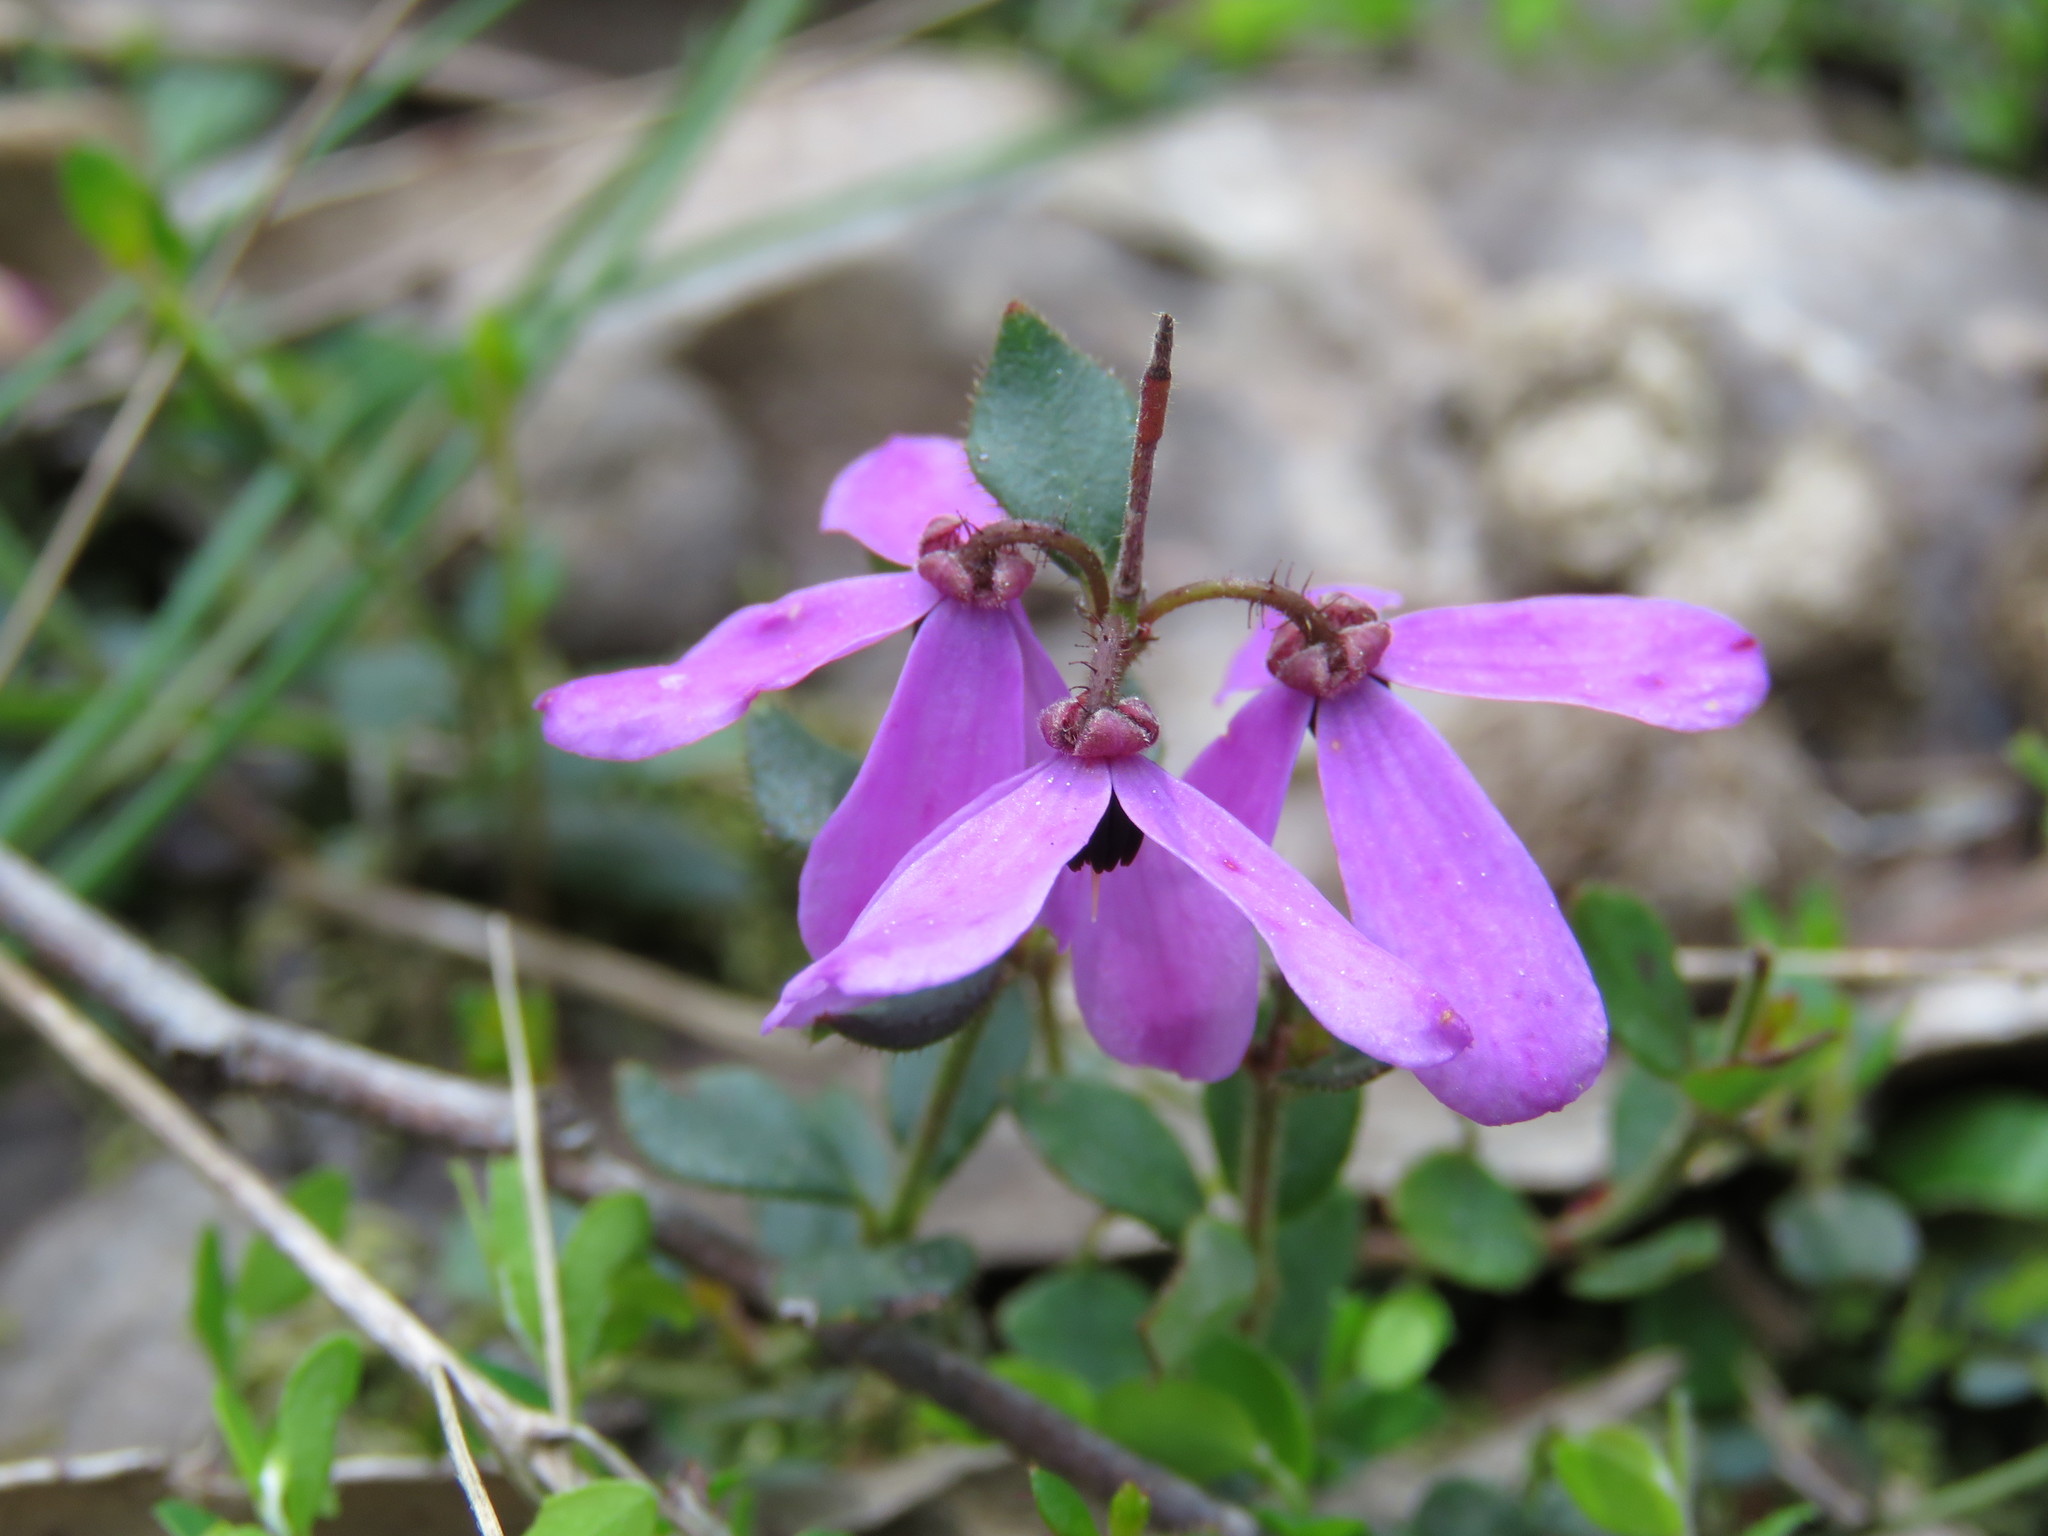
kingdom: Plantae
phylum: Tracheophyta
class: Magnoliopsida
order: Oxalidales
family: Elaeocarpaceae
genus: Tetratheca
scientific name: Tetratheca ciliata
